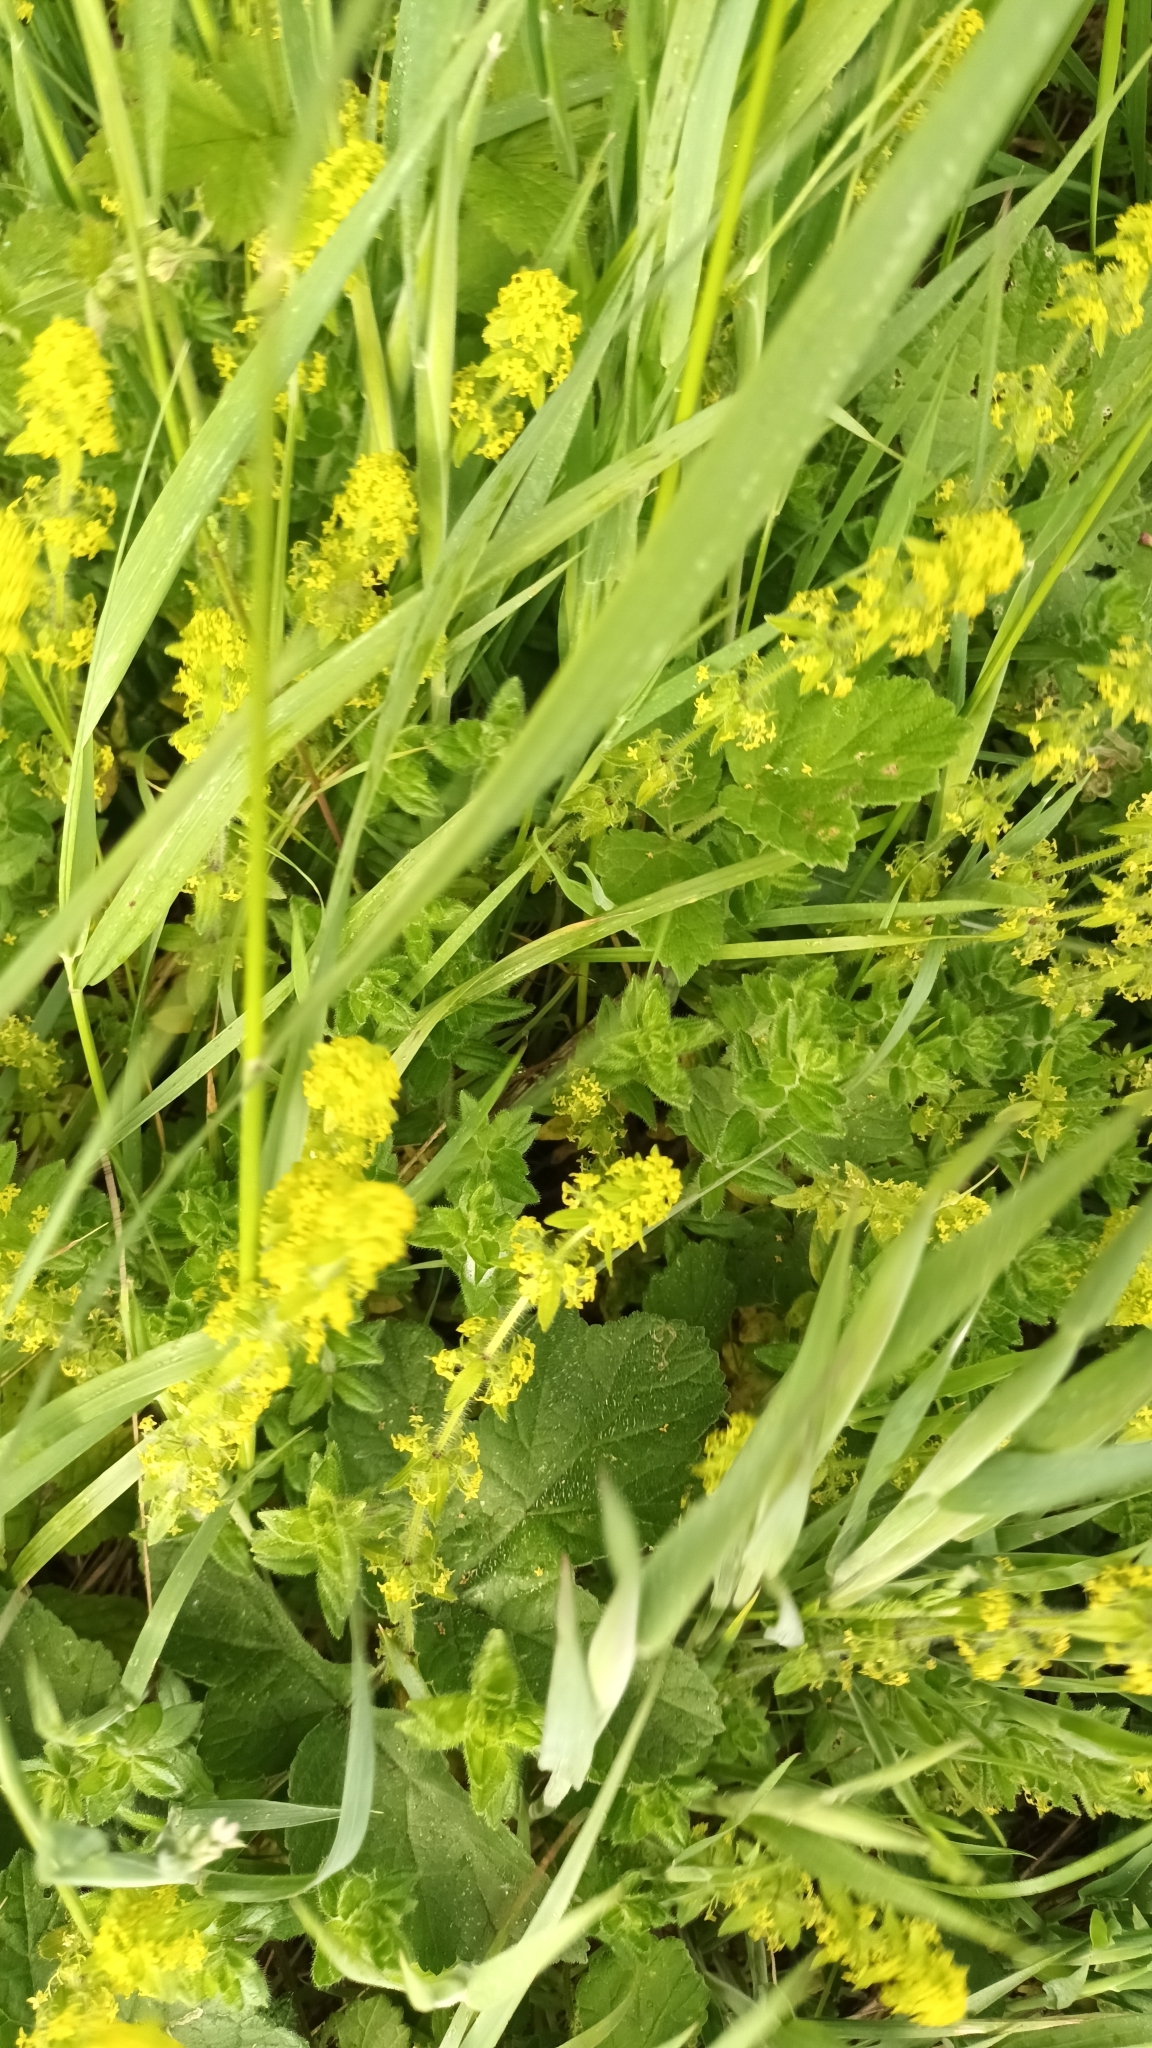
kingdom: Plantae
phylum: Tracheophyta
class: Magnoliopsida
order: Gentianales
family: Rubiaceae
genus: Cruciata
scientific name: Cruciata laevipes
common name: Crosswort
